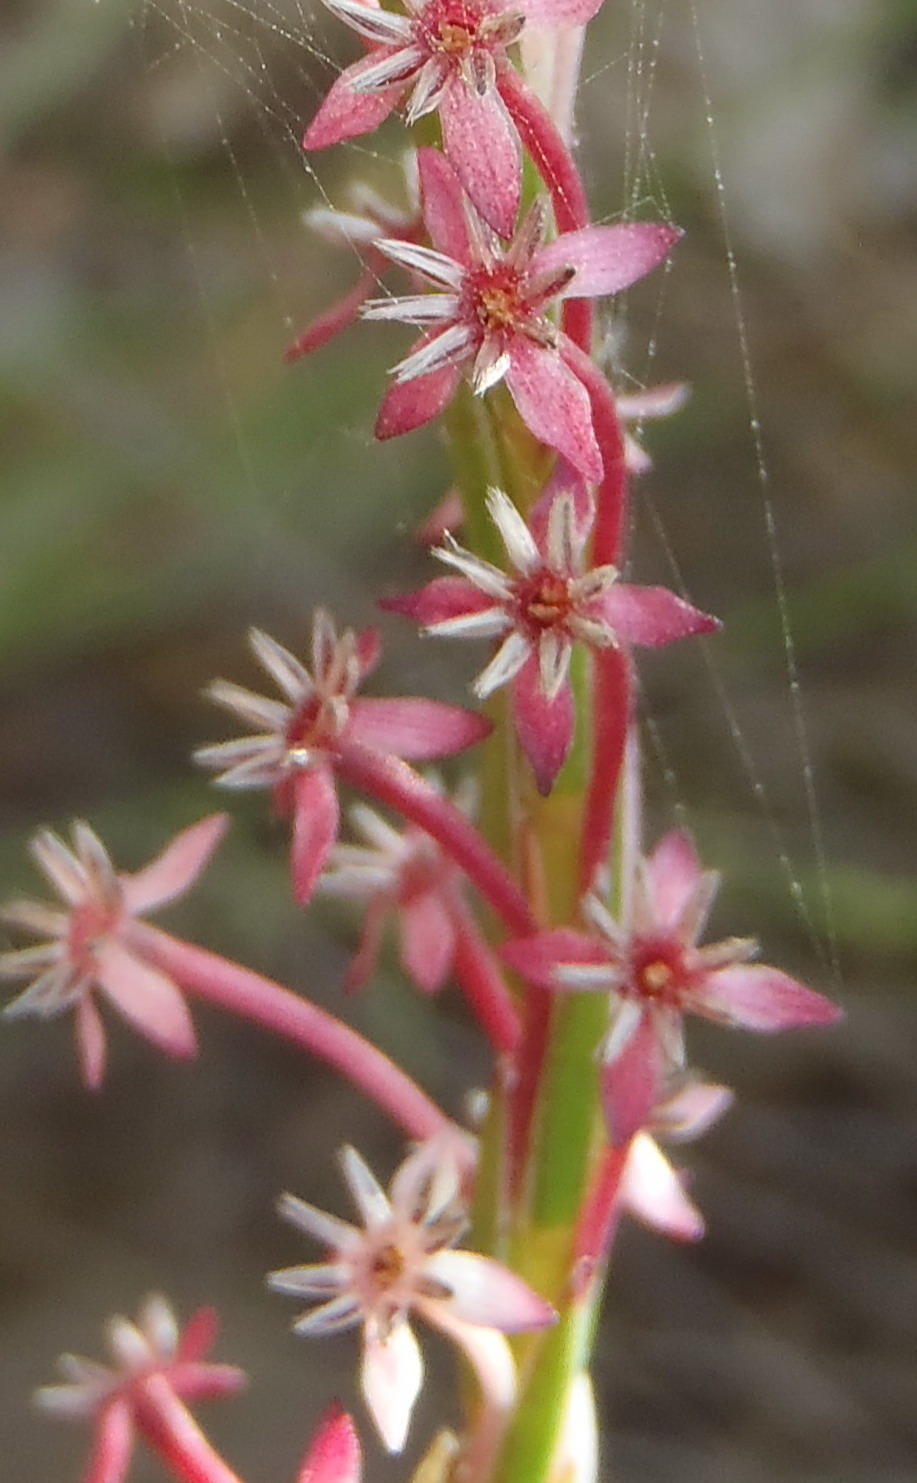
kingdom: Plantae
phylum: Tracheophyta
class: Magnoliopsida
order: Malvales
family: Thymelaeaceae
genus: Struthiola
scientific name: Struthiola macowanii
